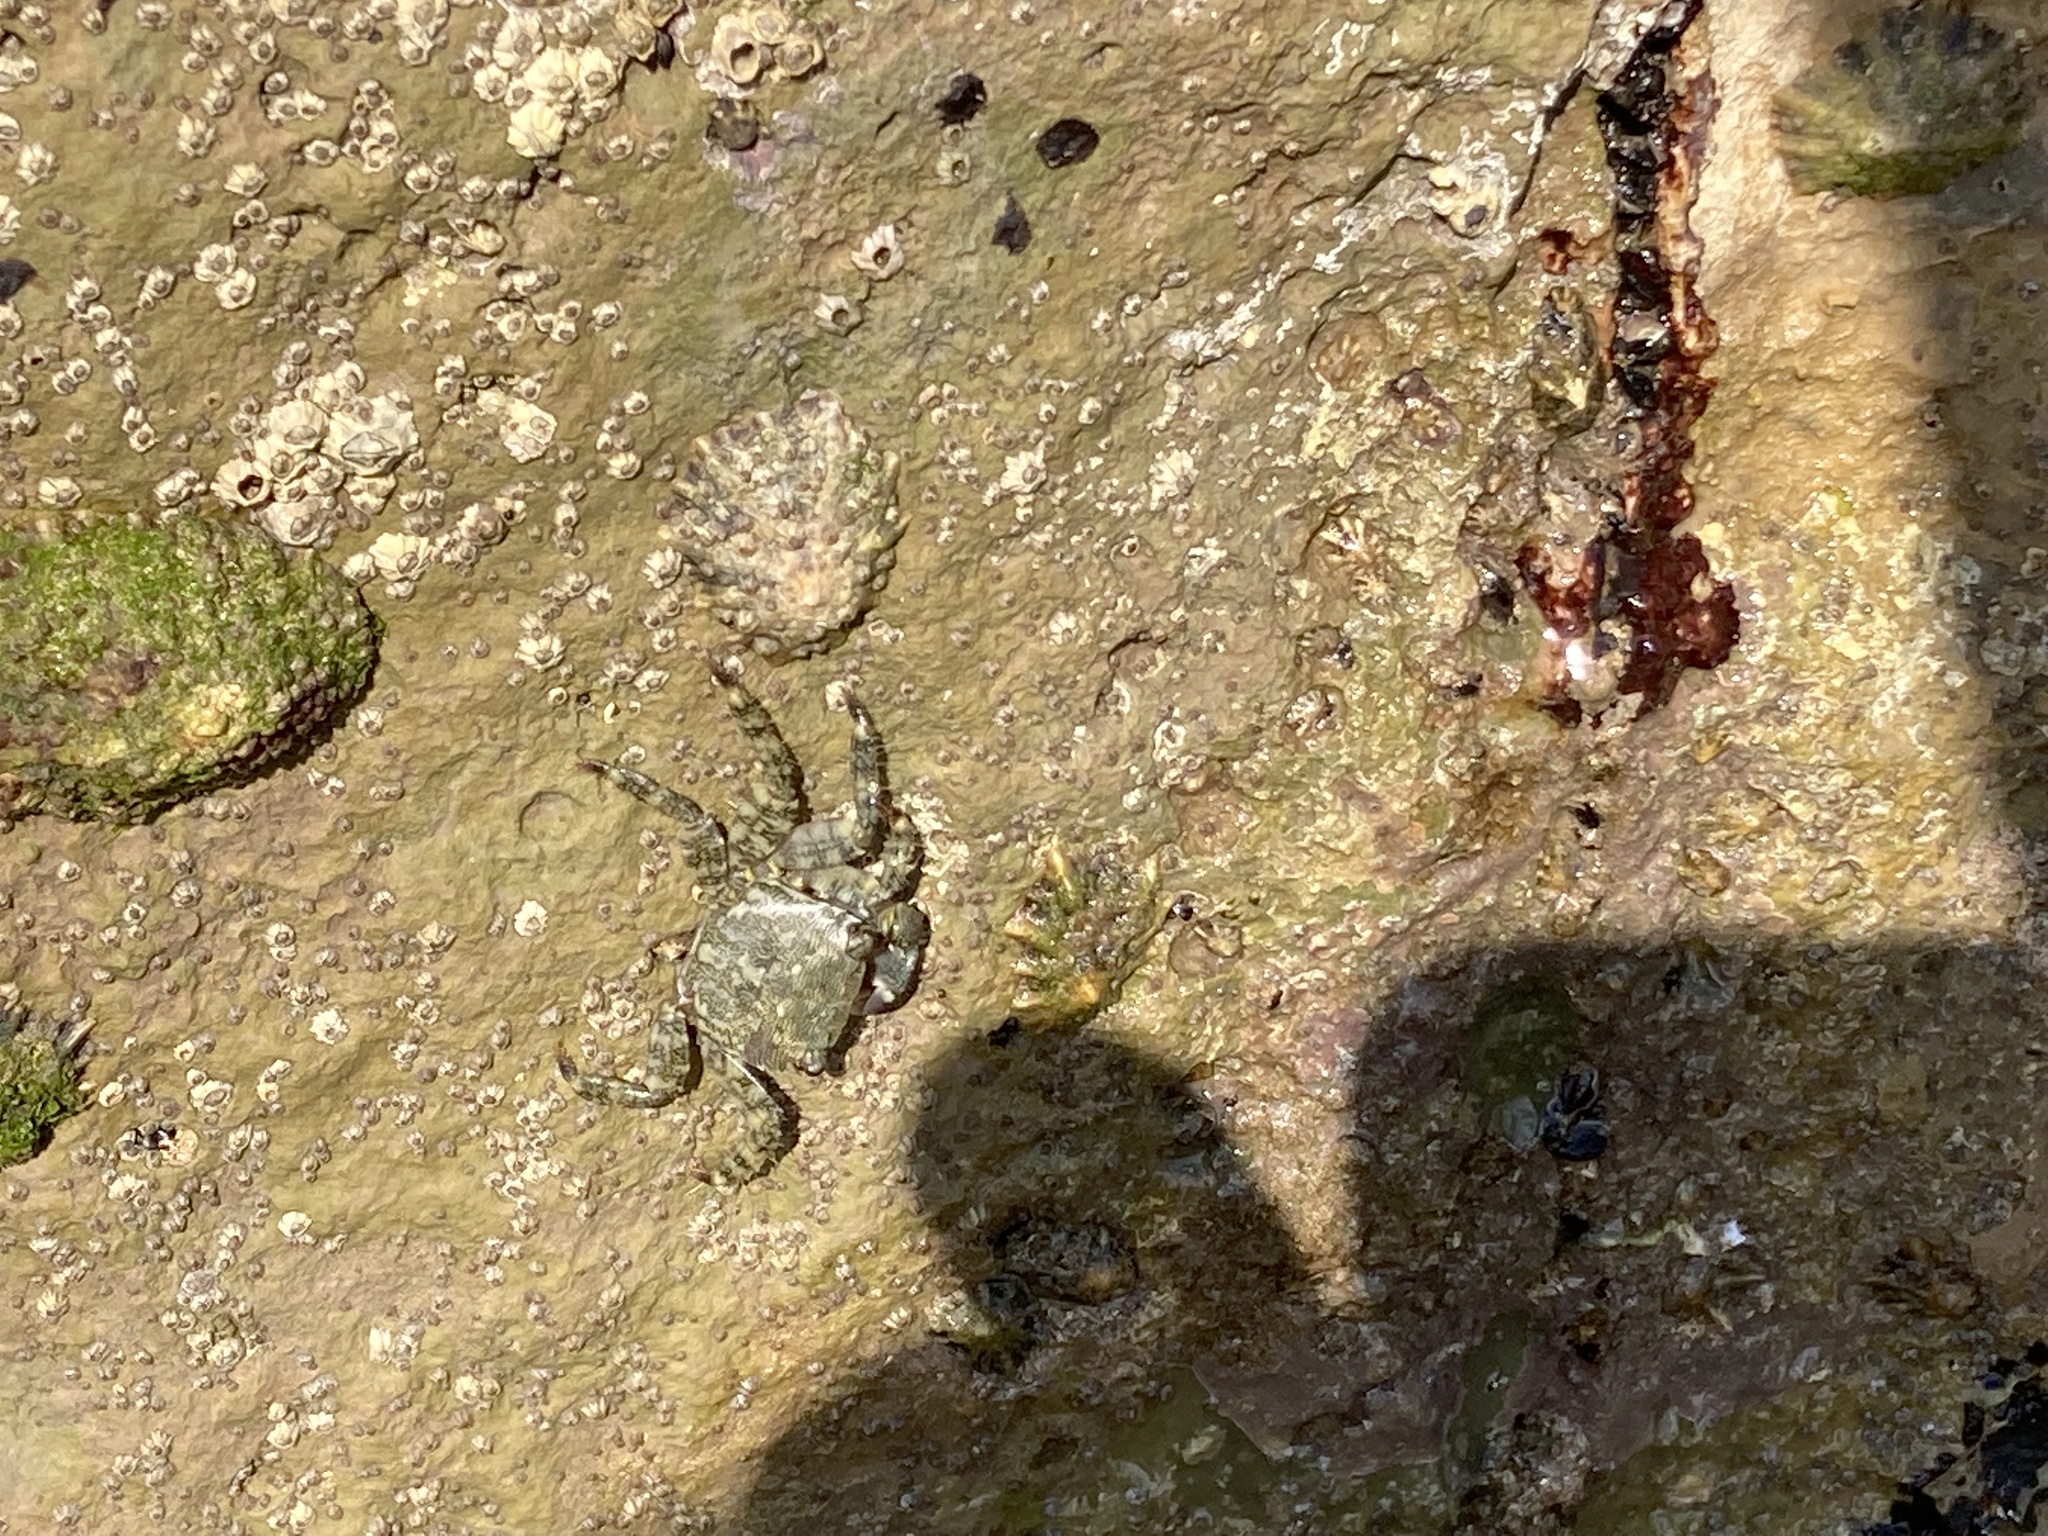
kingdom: Animalia
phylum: Arthropoda
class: Malacostraca
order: Decapoda
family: Grapsidae
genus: Pachygrapsus
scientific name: Pachygrapsus marmoratus
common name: Marbled rock crab
